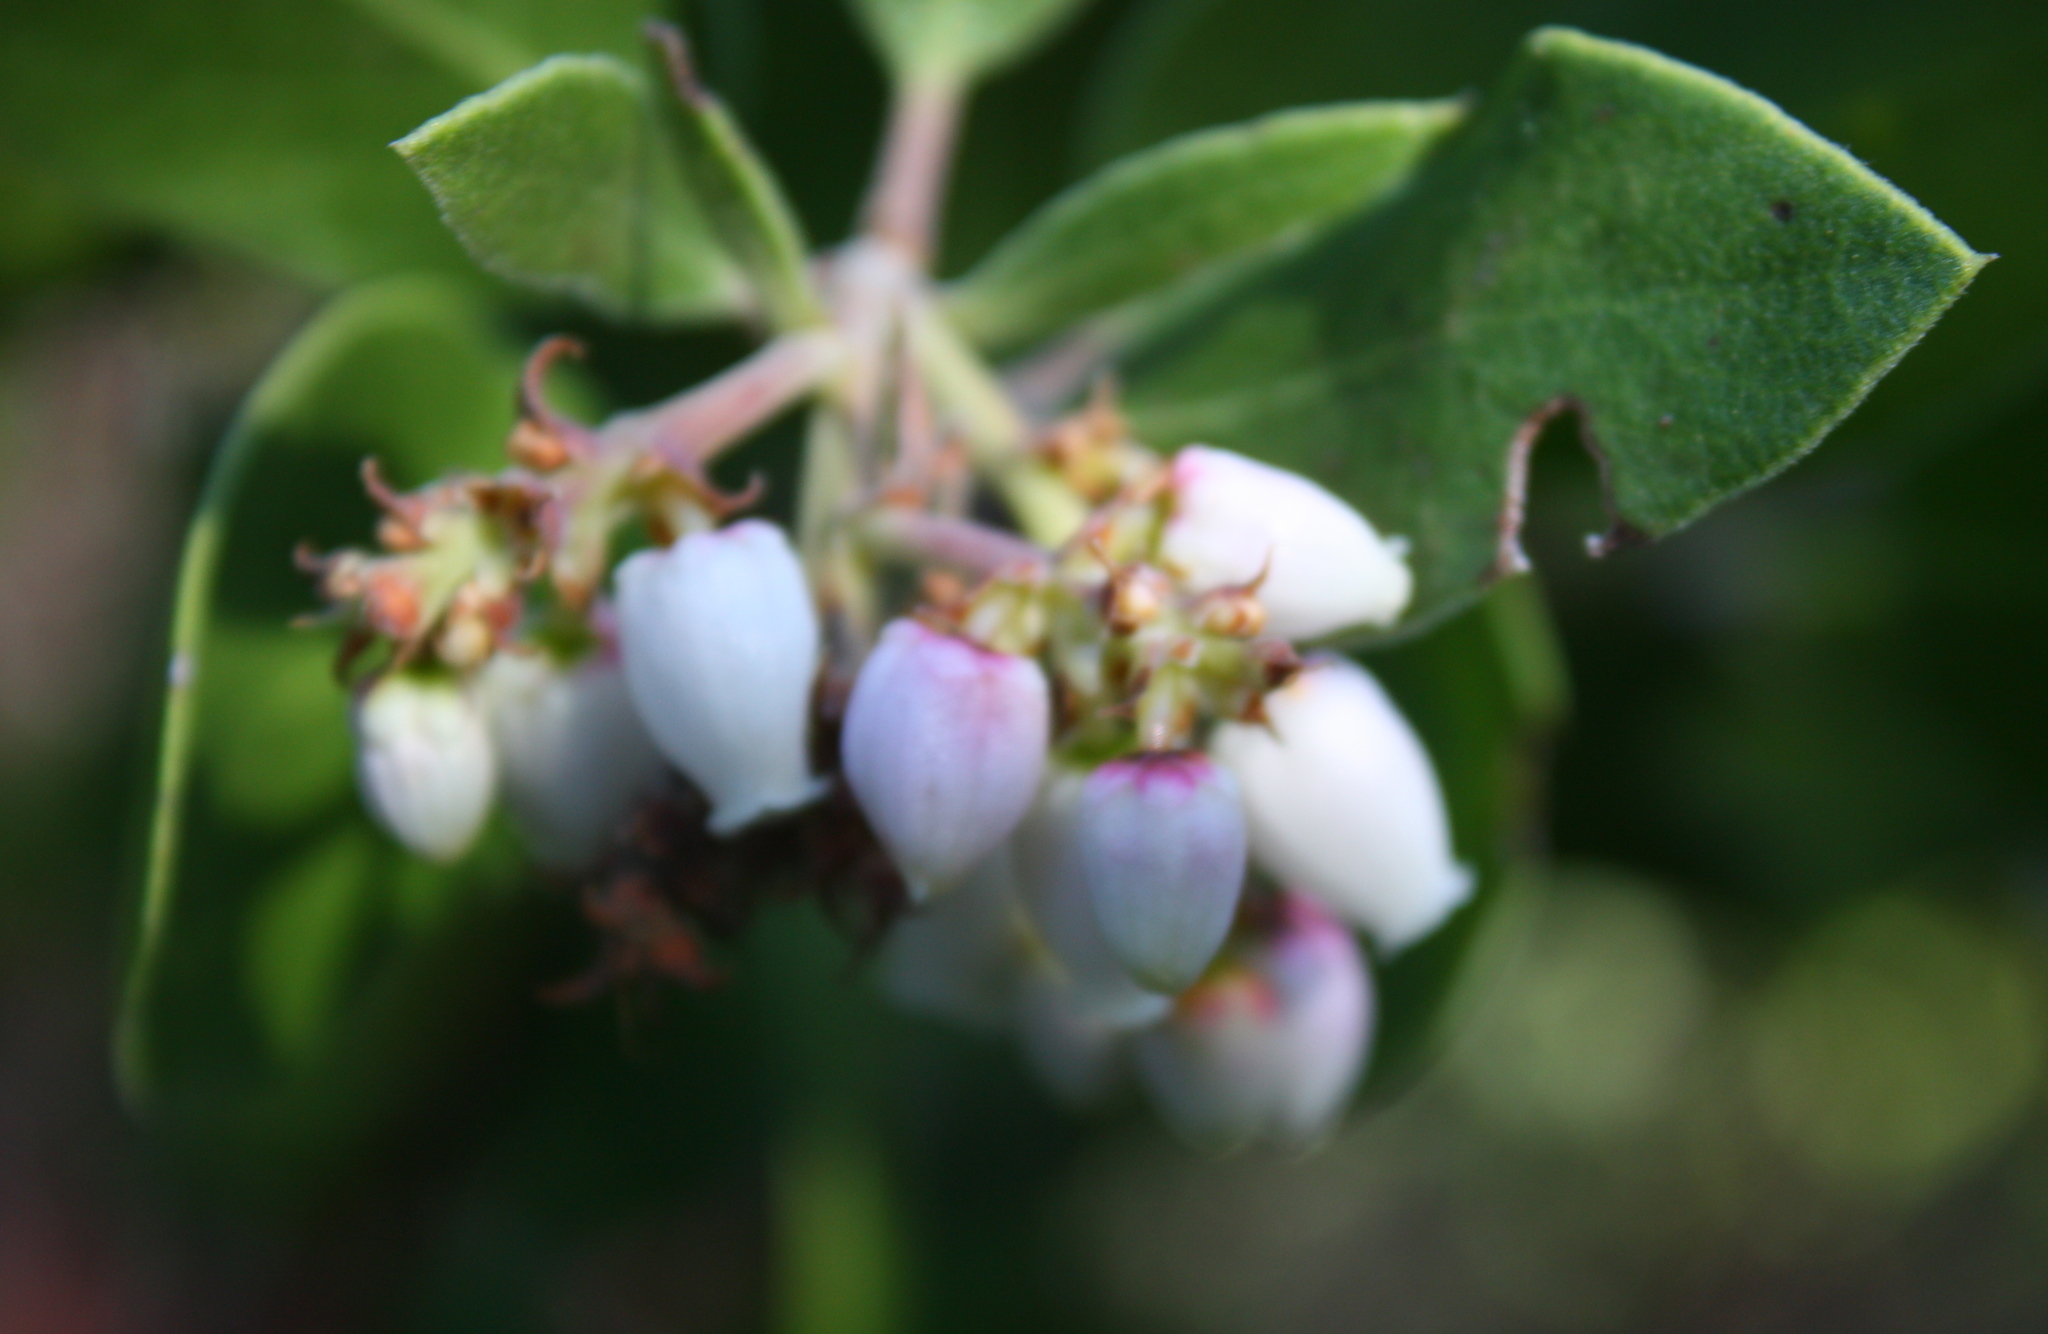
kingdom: Plantae
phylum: Tracheophyta
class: Magnoliopsida
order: Ericales
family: Ericaceae
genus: Arctostaphylos
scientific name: Arctostaphylos manzanita
